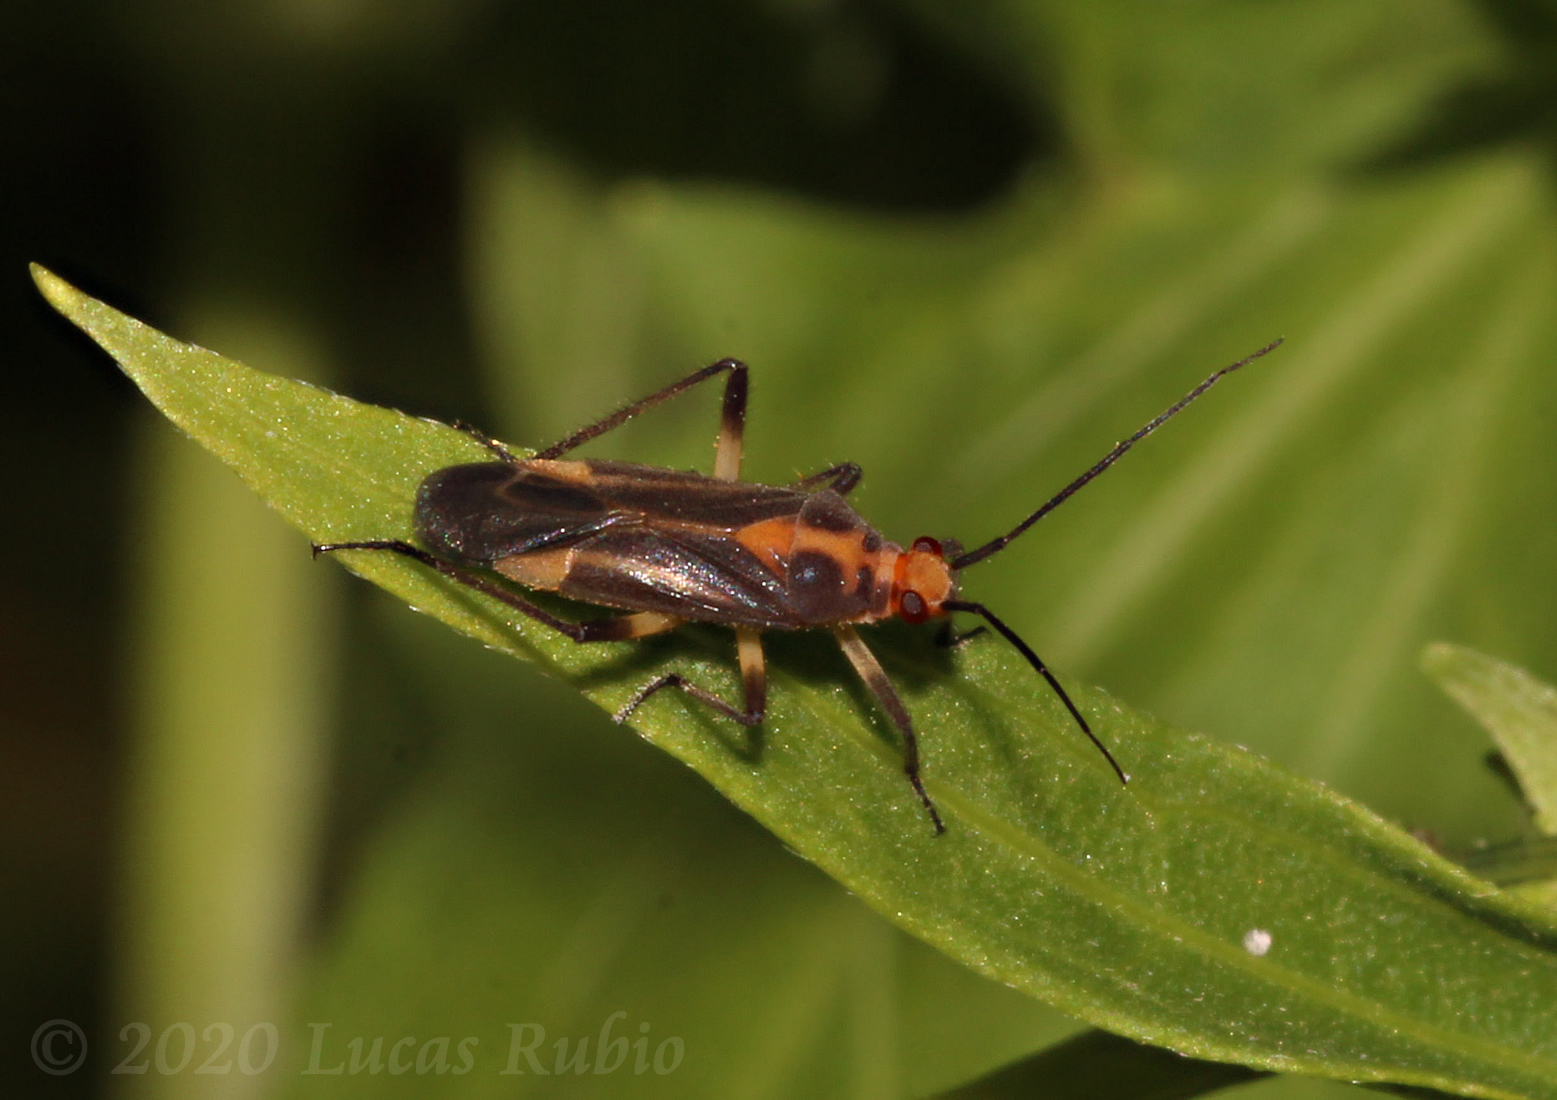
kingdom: Animalia
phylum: Arthropoda
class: Insecta
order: Hemiptera
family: Miridae
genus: Prepops
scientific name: Prepops cruciferus
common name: Plant bug
